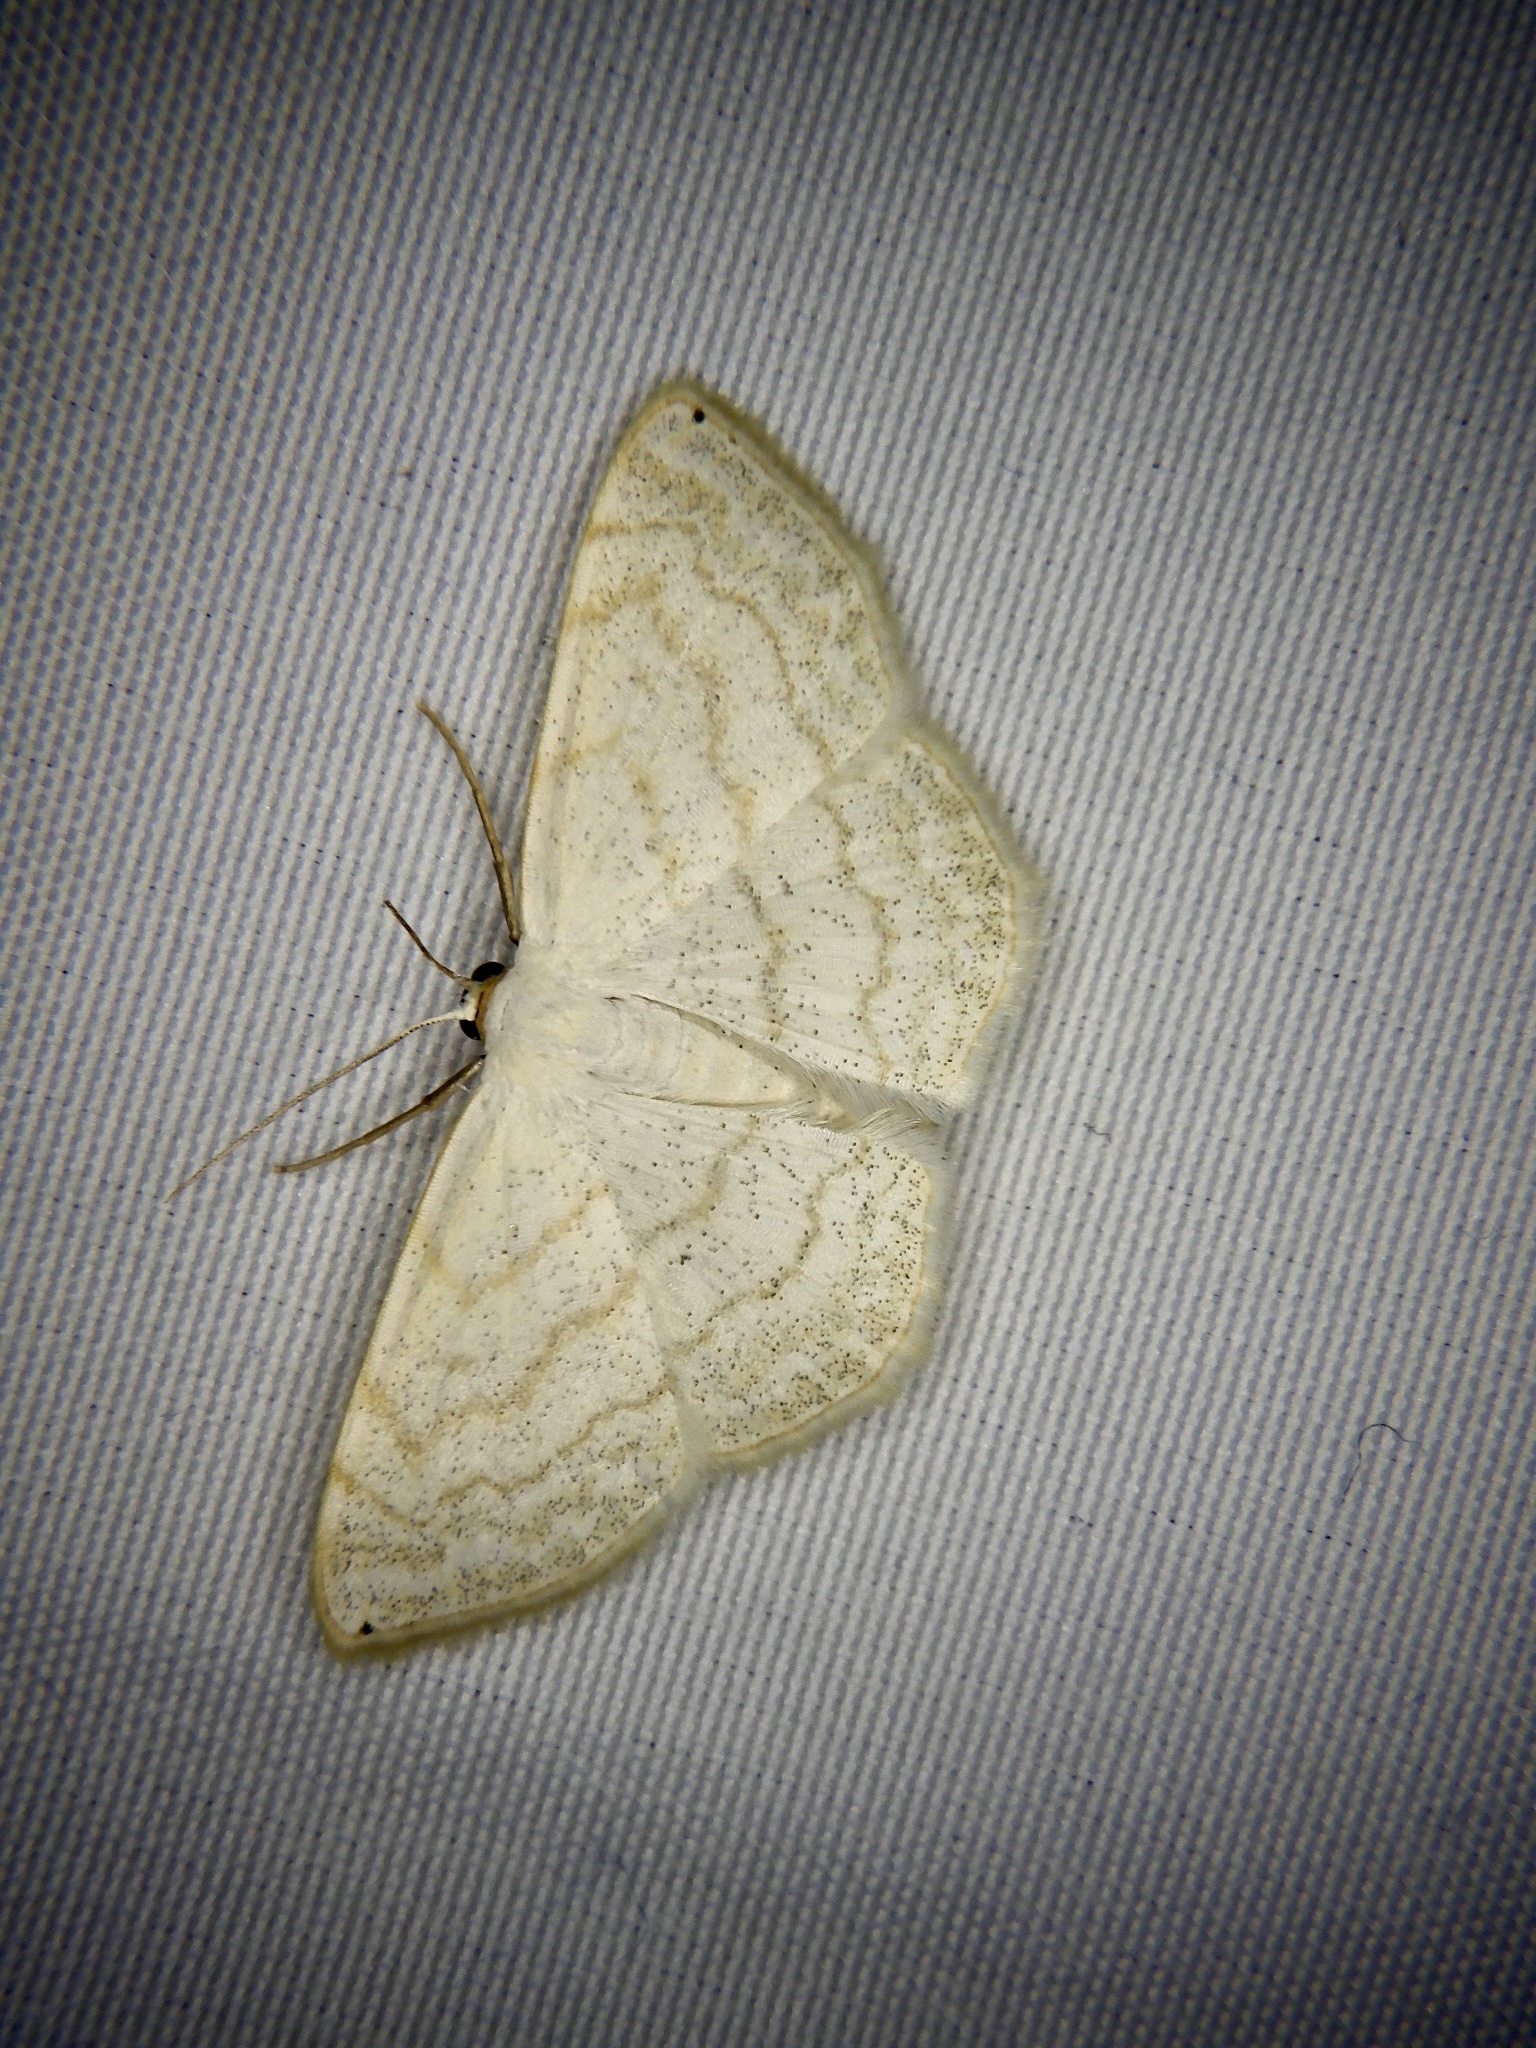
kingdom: Animalia
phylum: Arthropoda
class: Insecta
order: Lepidoptera
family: Geometridae
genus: Scopula
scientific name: Scopula apicipunctata
